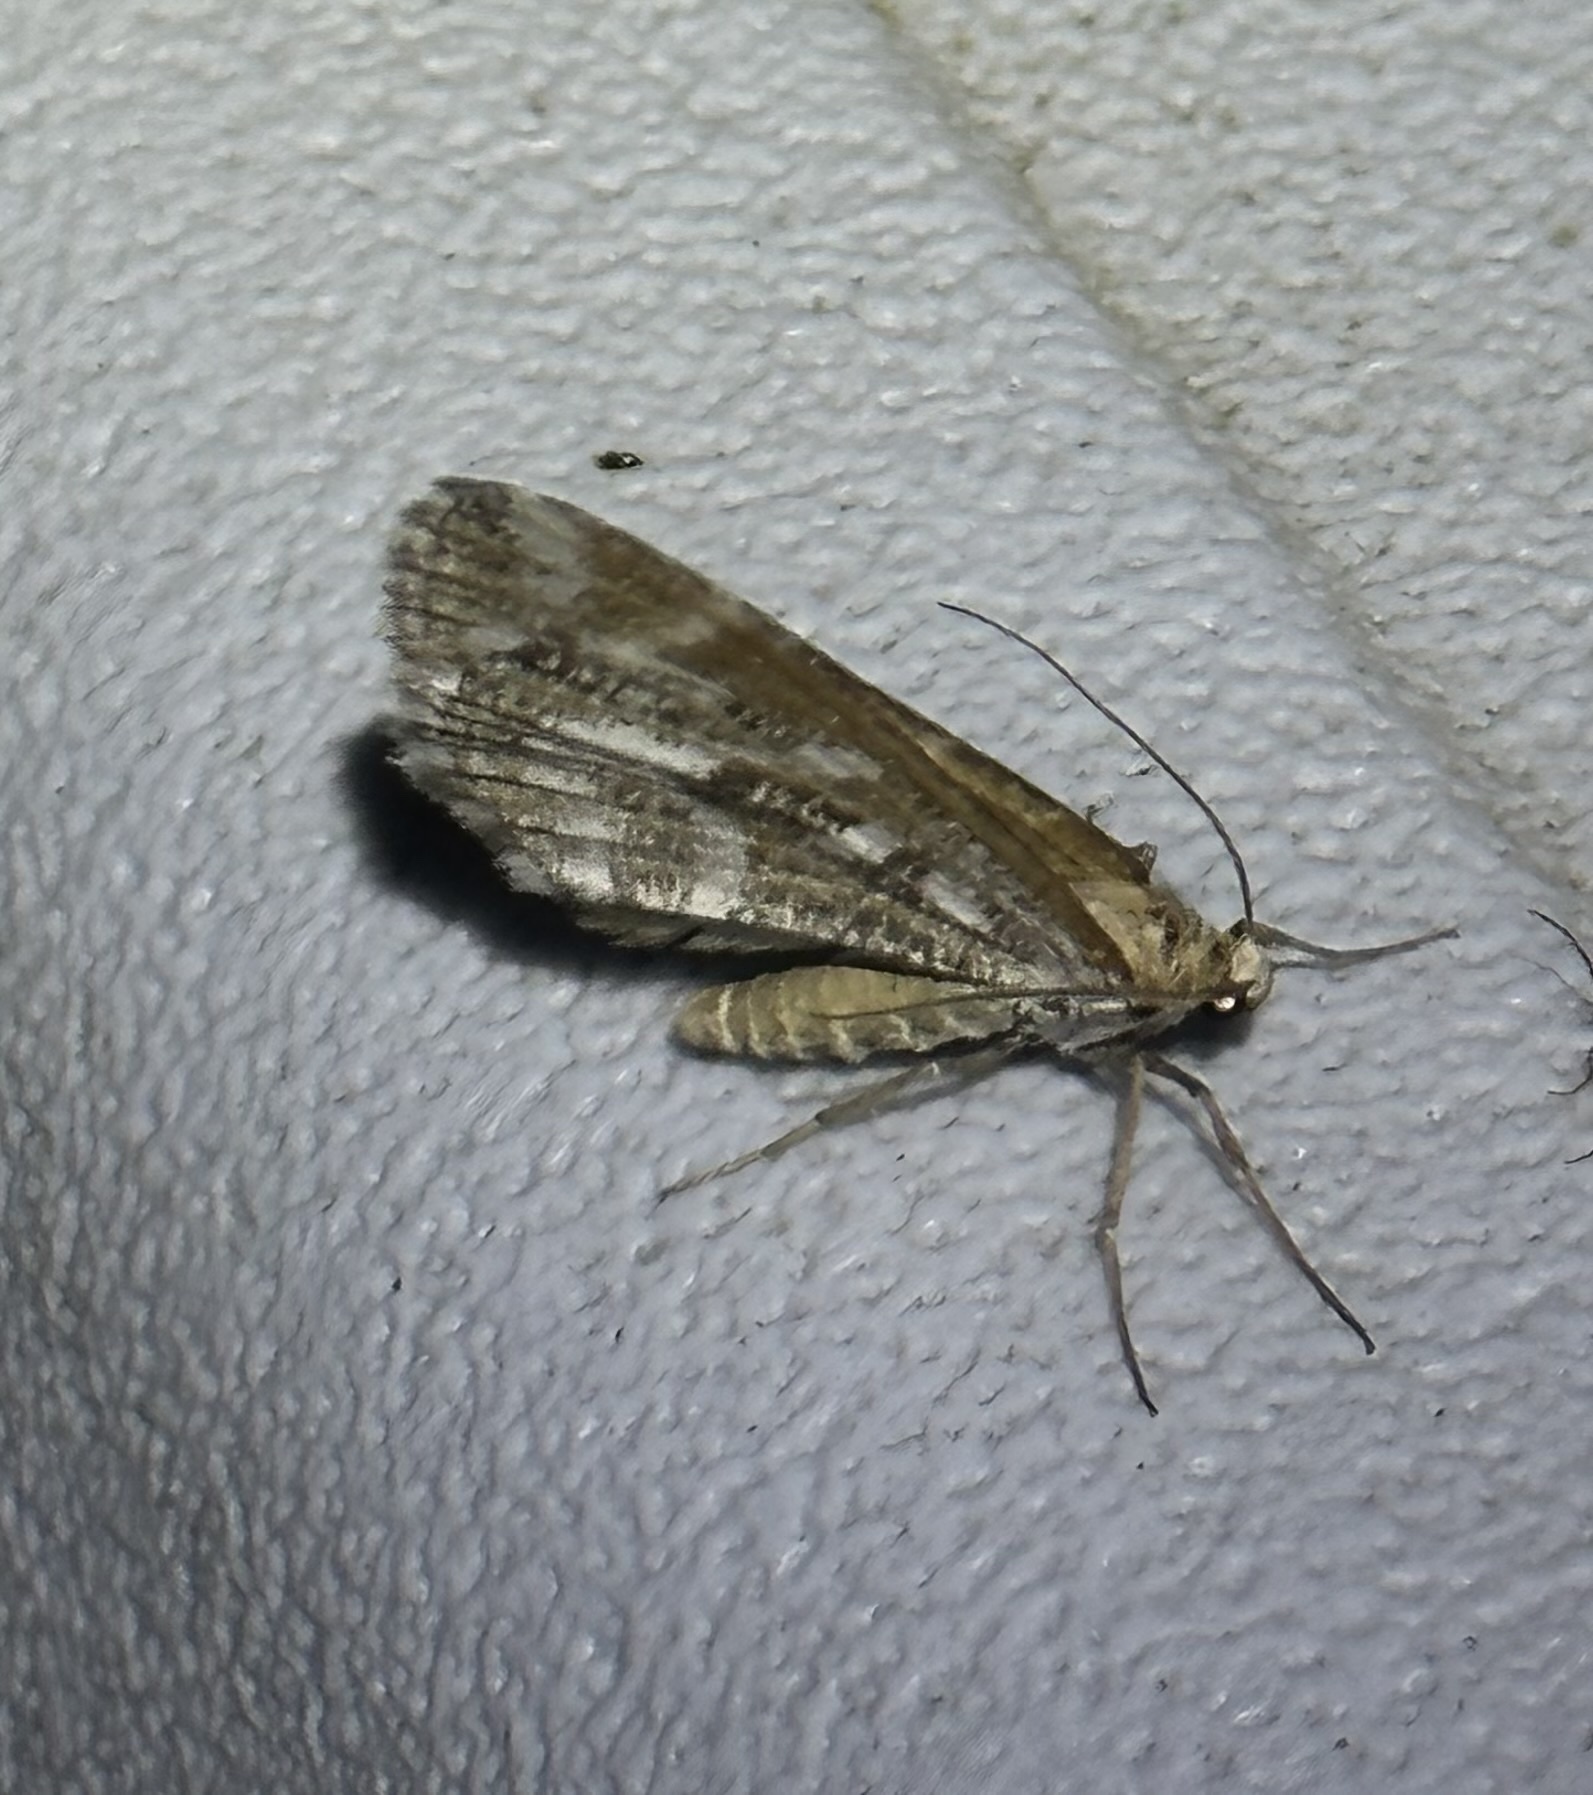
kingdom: Animalia
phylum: Arthropoda
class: Insecta
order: Lepidoptera
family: Geometridae
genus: Stamnodes
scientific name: Stamnodes marmorata
